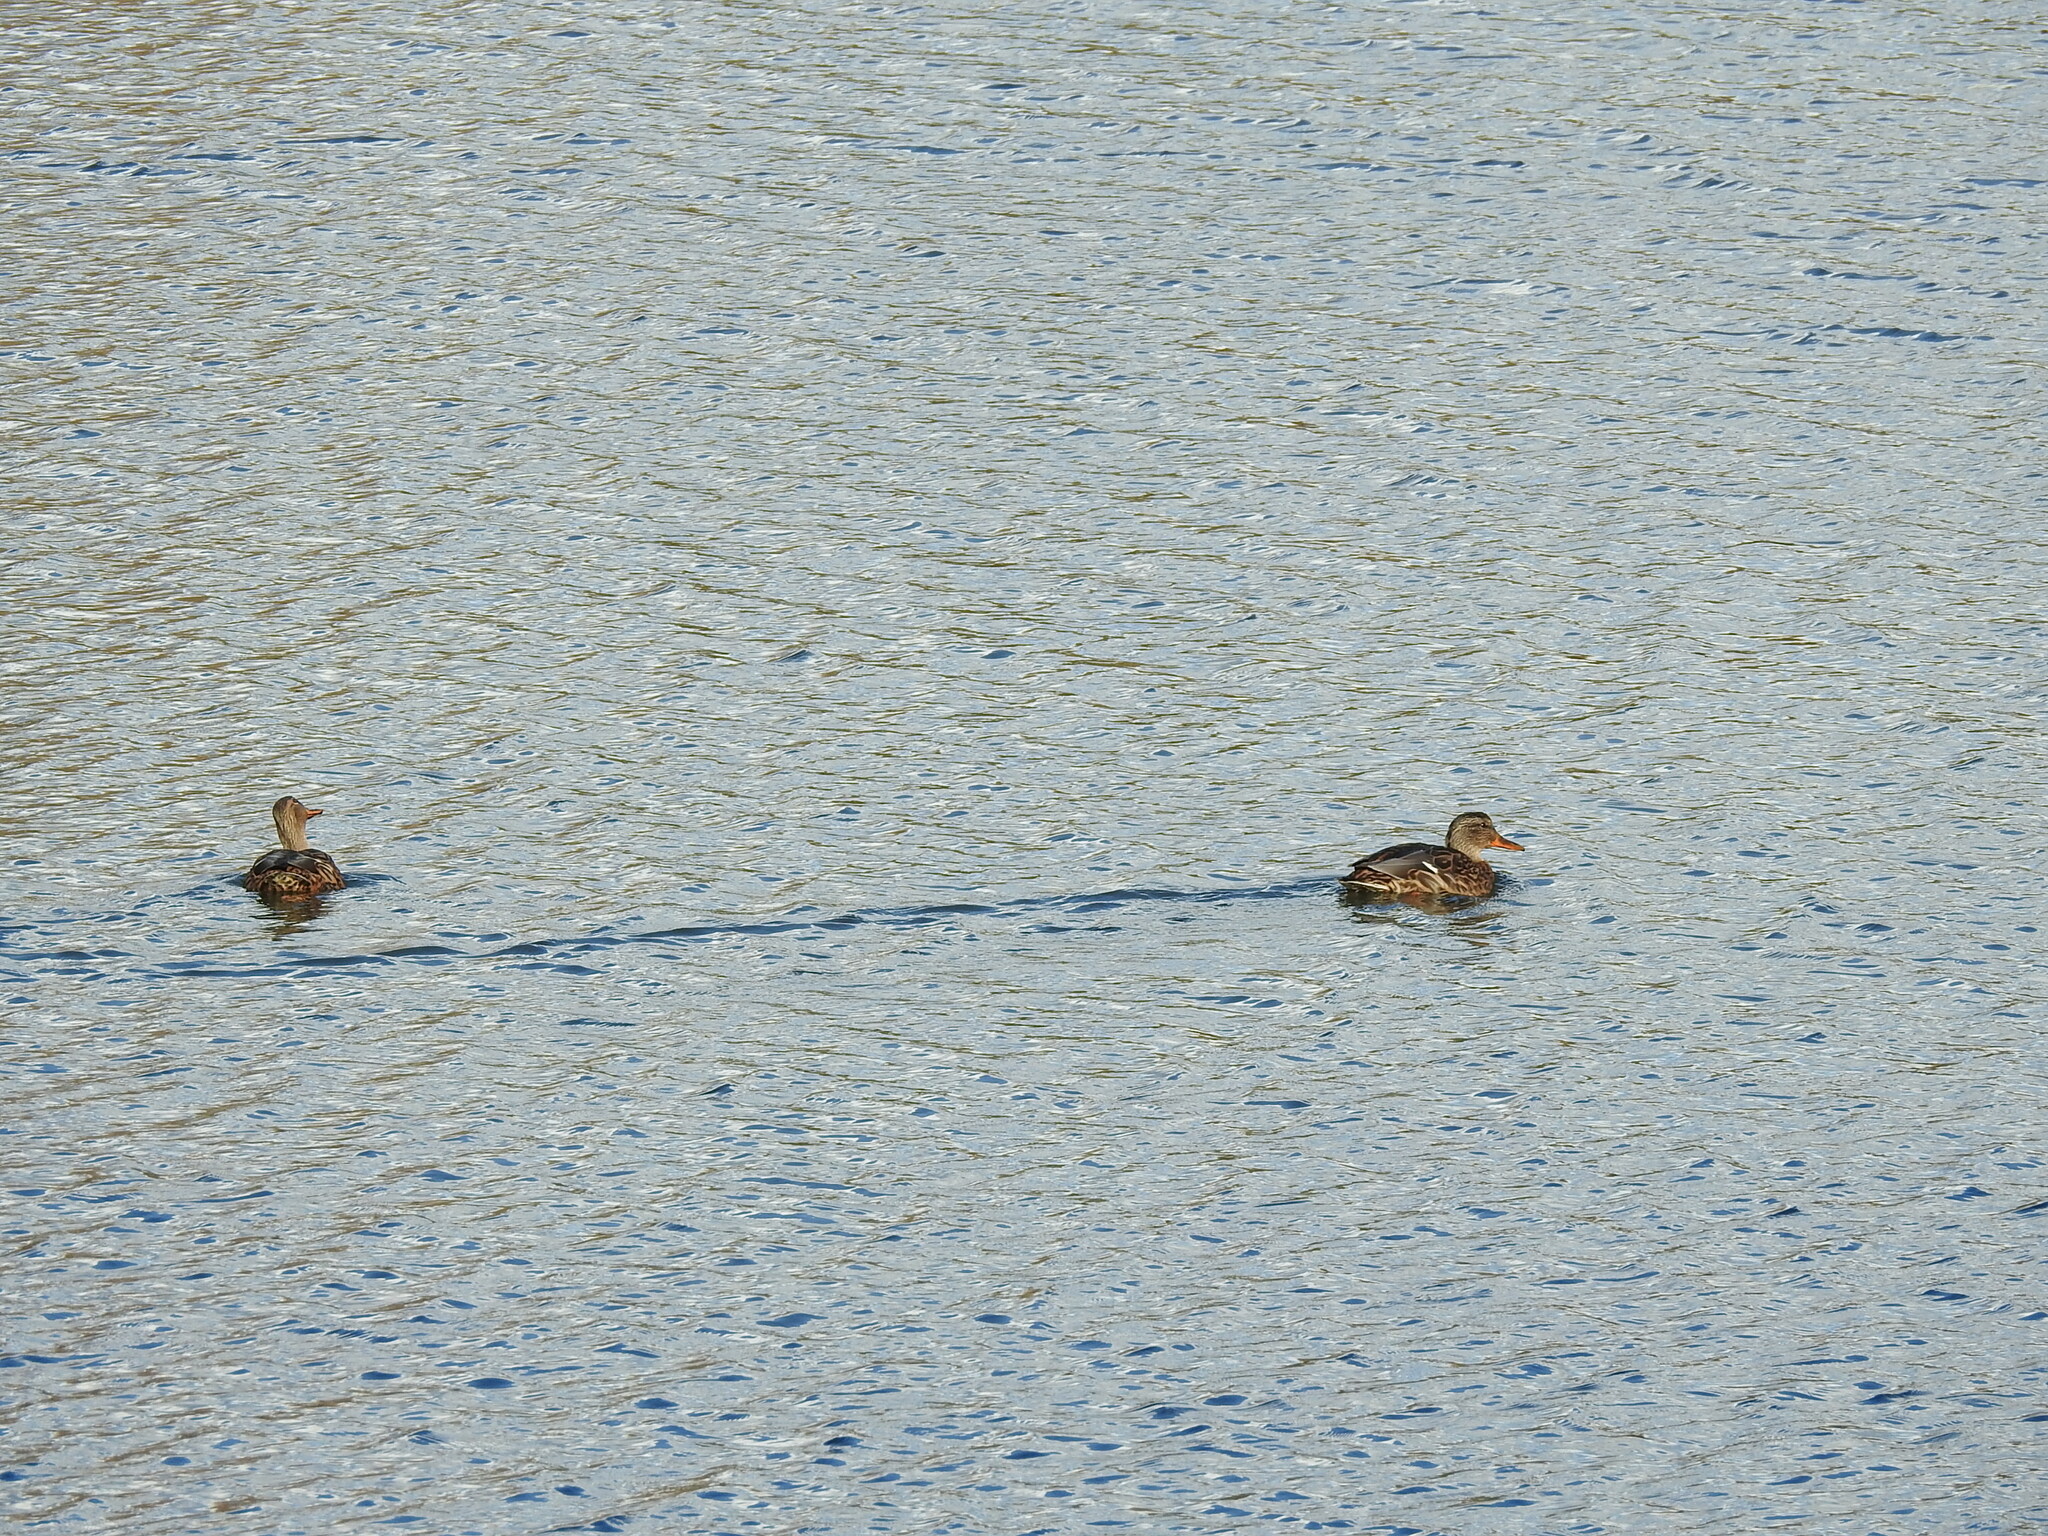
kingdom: Animalia
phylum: Chordata
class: Aves
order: Anseriformes
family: Anatidae
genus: Anas
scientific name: Anas platyrhynchos
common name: Mallard
